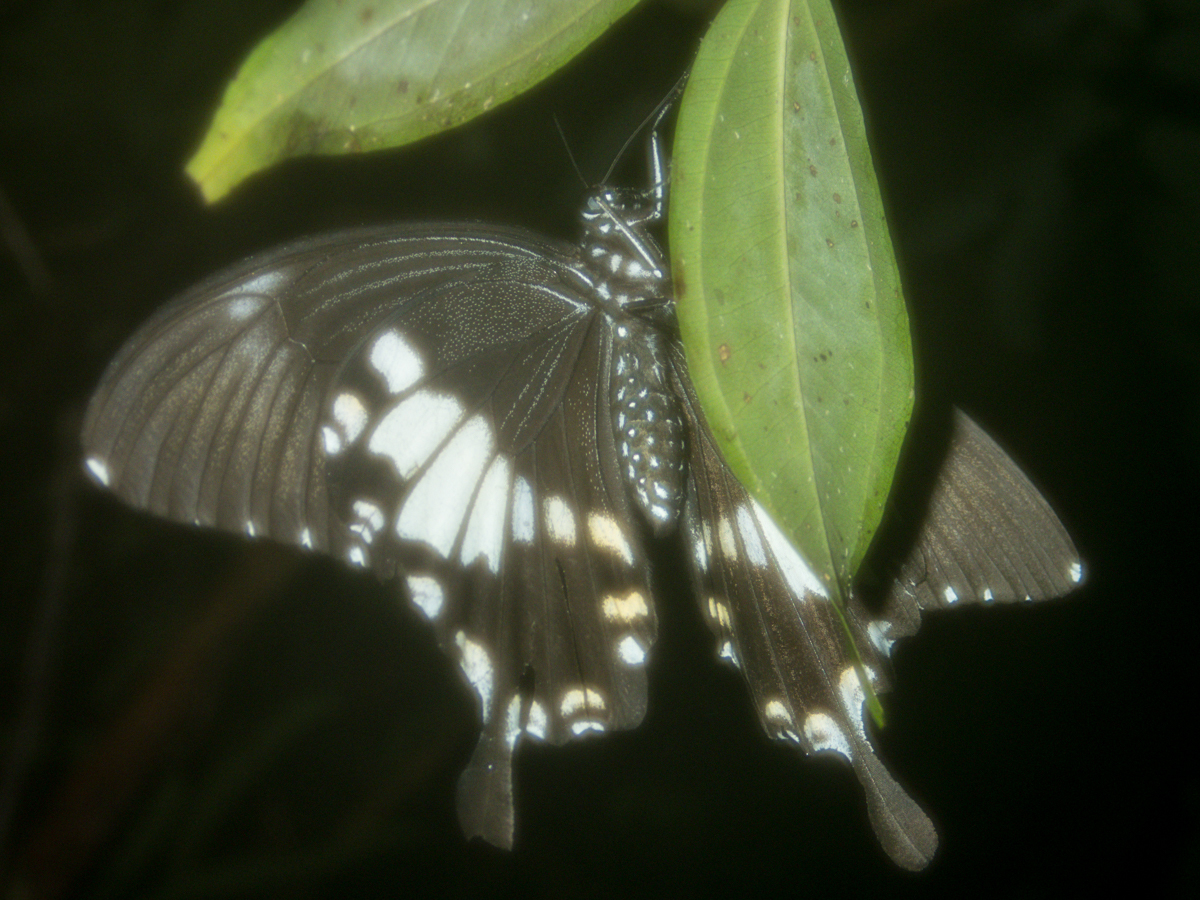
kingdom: Animalia
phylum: Arthropoda
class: Insecta
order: Lepidoptera
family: Papilionidae
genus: Atrophaneura
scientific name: Atrophaneura varuna
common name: Common batwing
